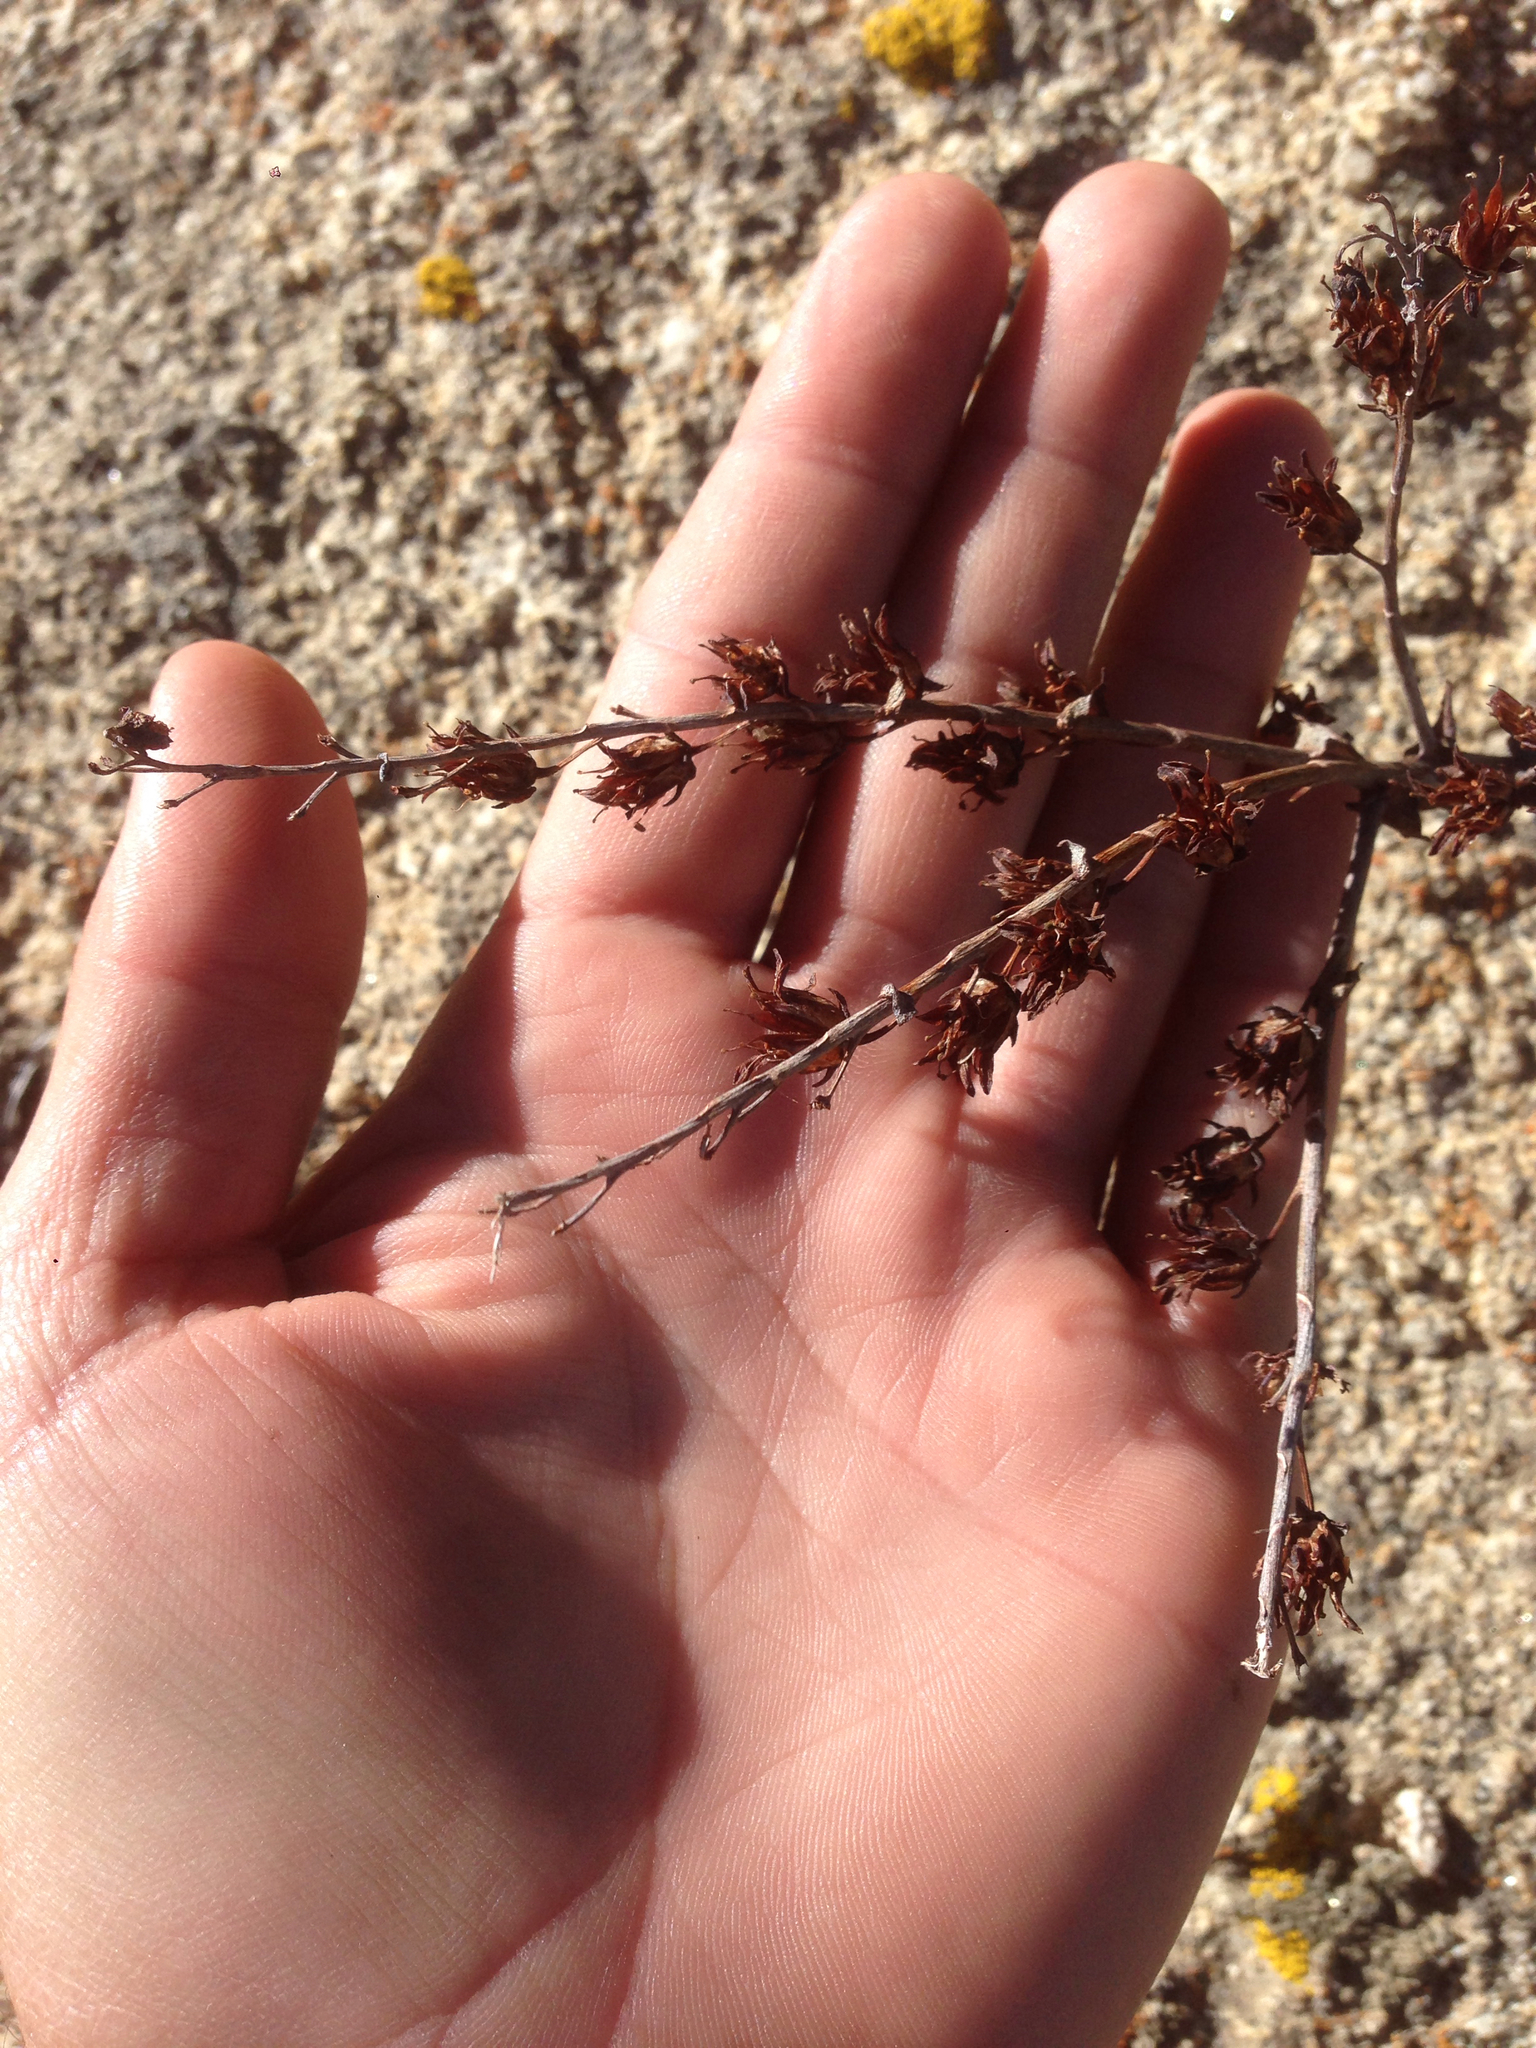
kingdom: Plantae
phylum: Tracheophyta
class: Magnoliopsida
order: Saxifragales
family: Crassulaceae
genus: Dudleya
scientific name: Dudleya arizonica
